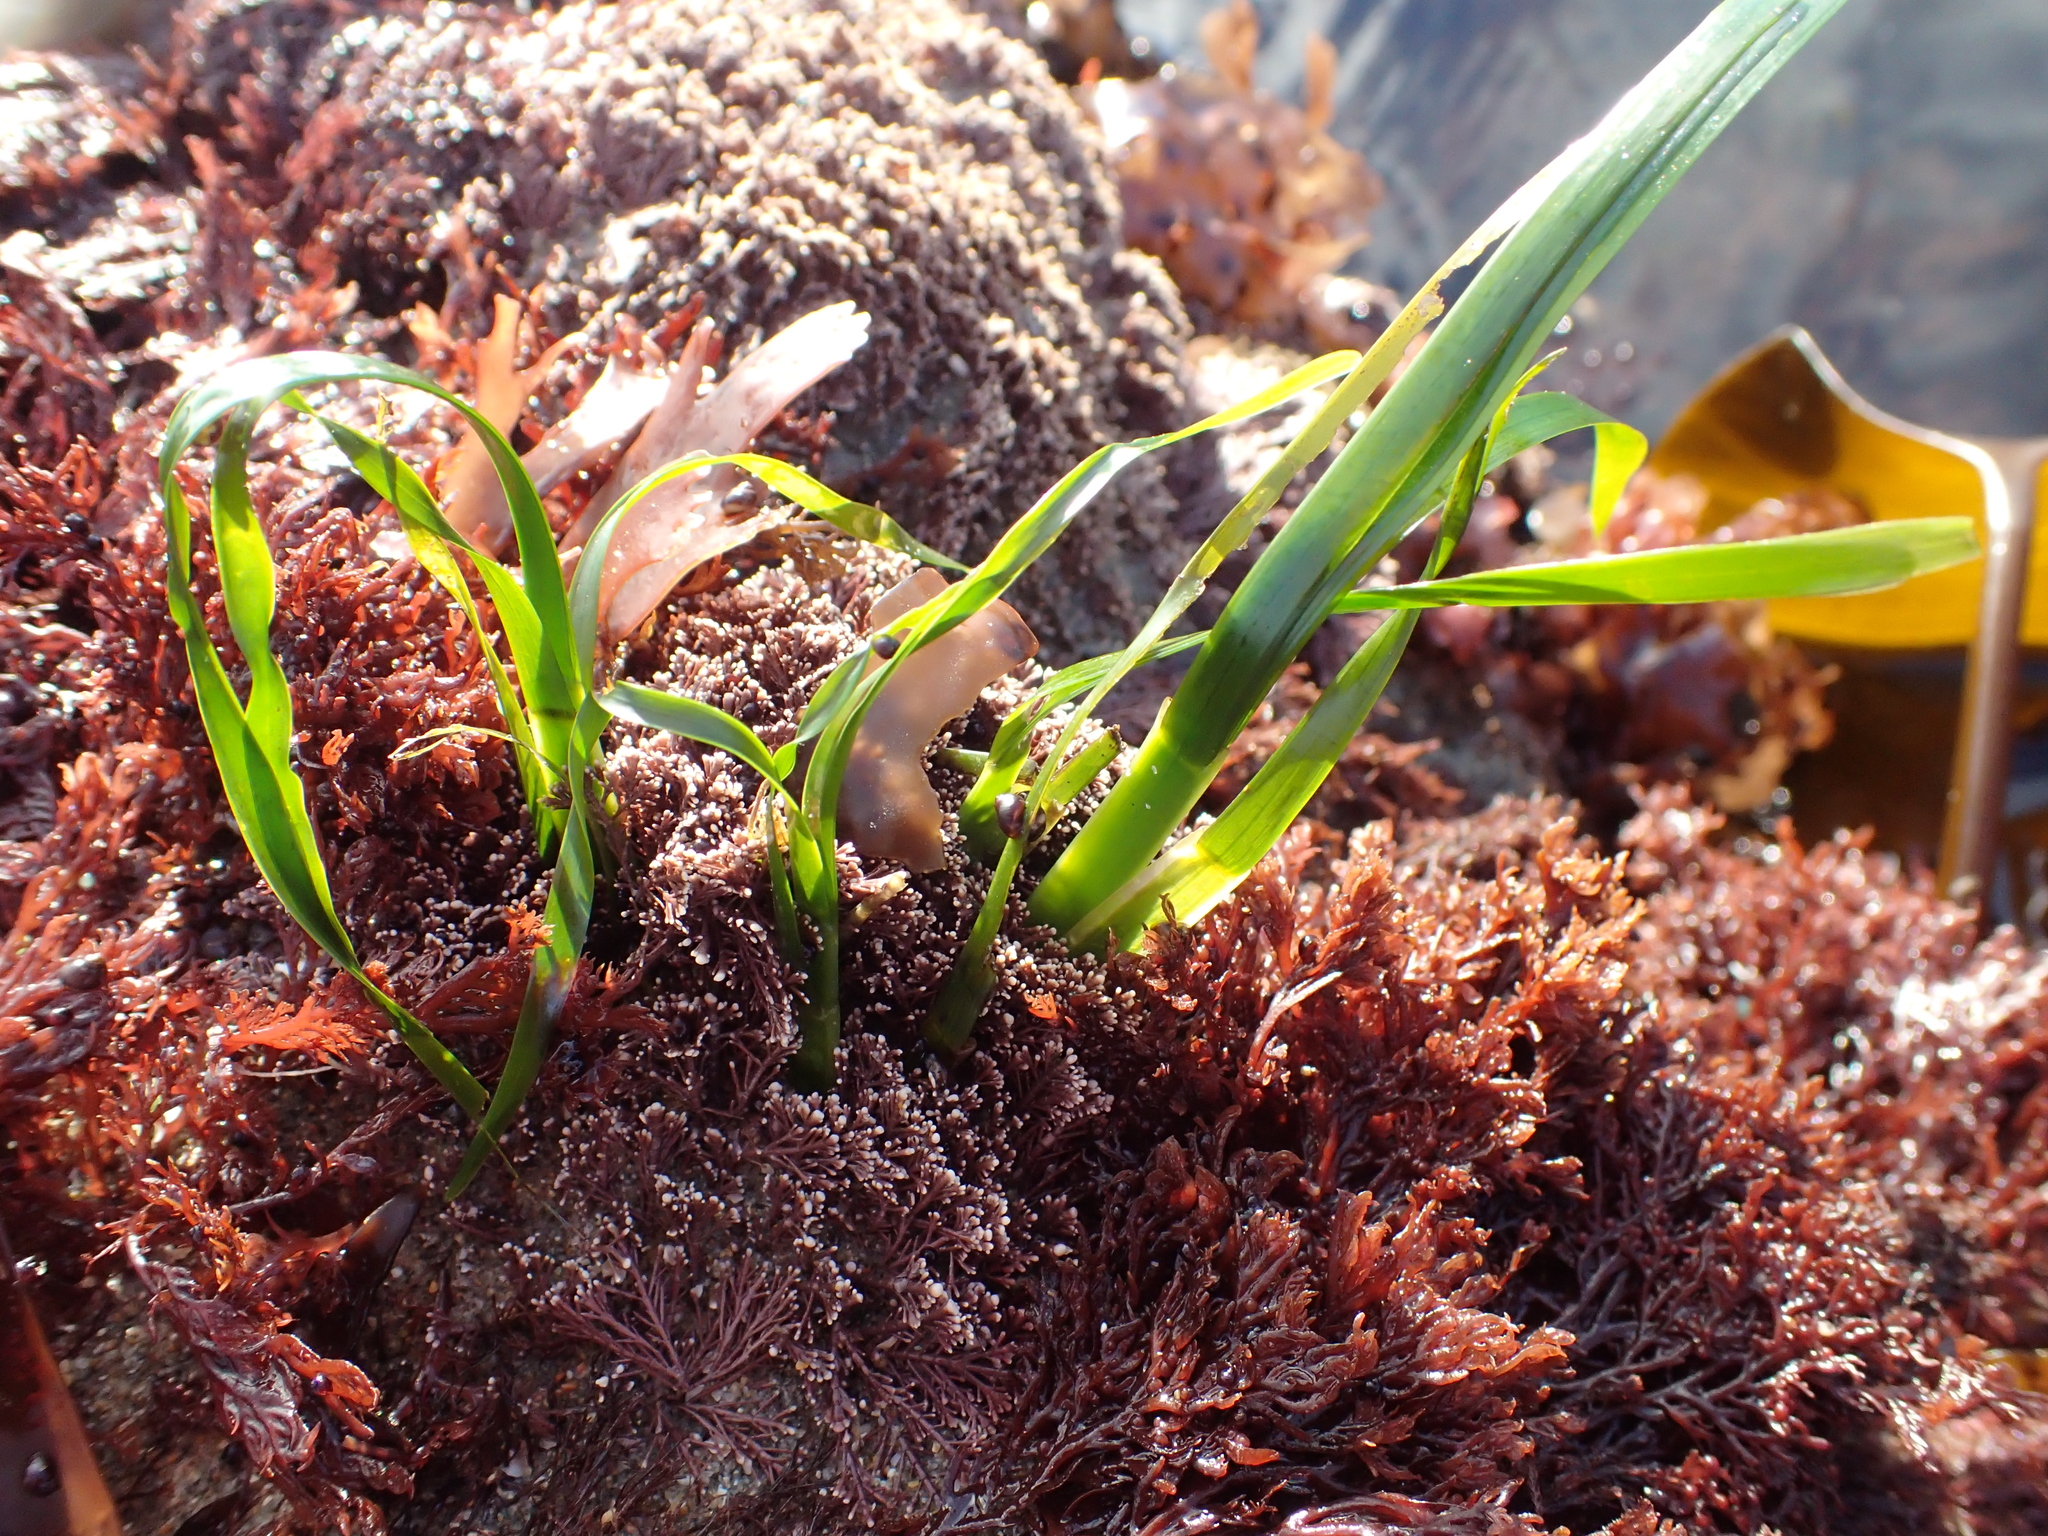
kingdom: Plantae
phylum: Tracheophyta
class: Liliopsida
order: Alismatales
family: Zosteraceae
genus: Phyllospadix
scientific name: Phyllospadix scouleri
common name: Species code: ps
